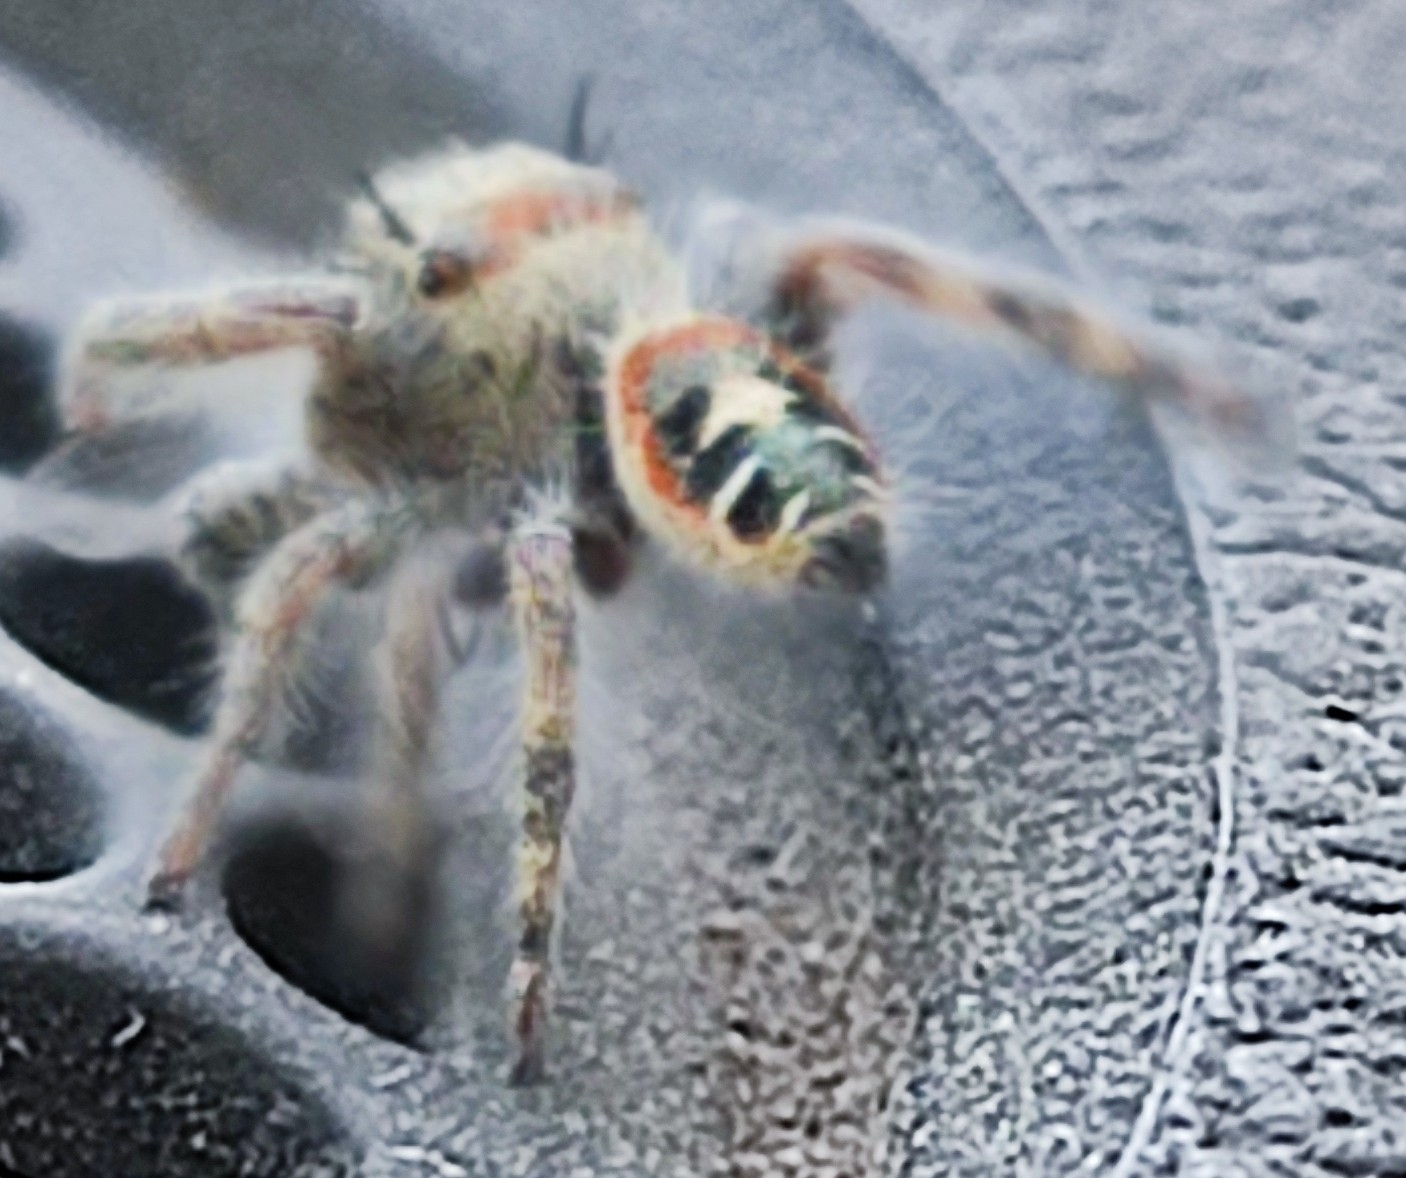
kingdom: Animalia
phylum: Arthropoda
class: Arachnida
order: Araneae
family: Salticidae
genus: Phidippus
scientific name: Phidippus californicus
